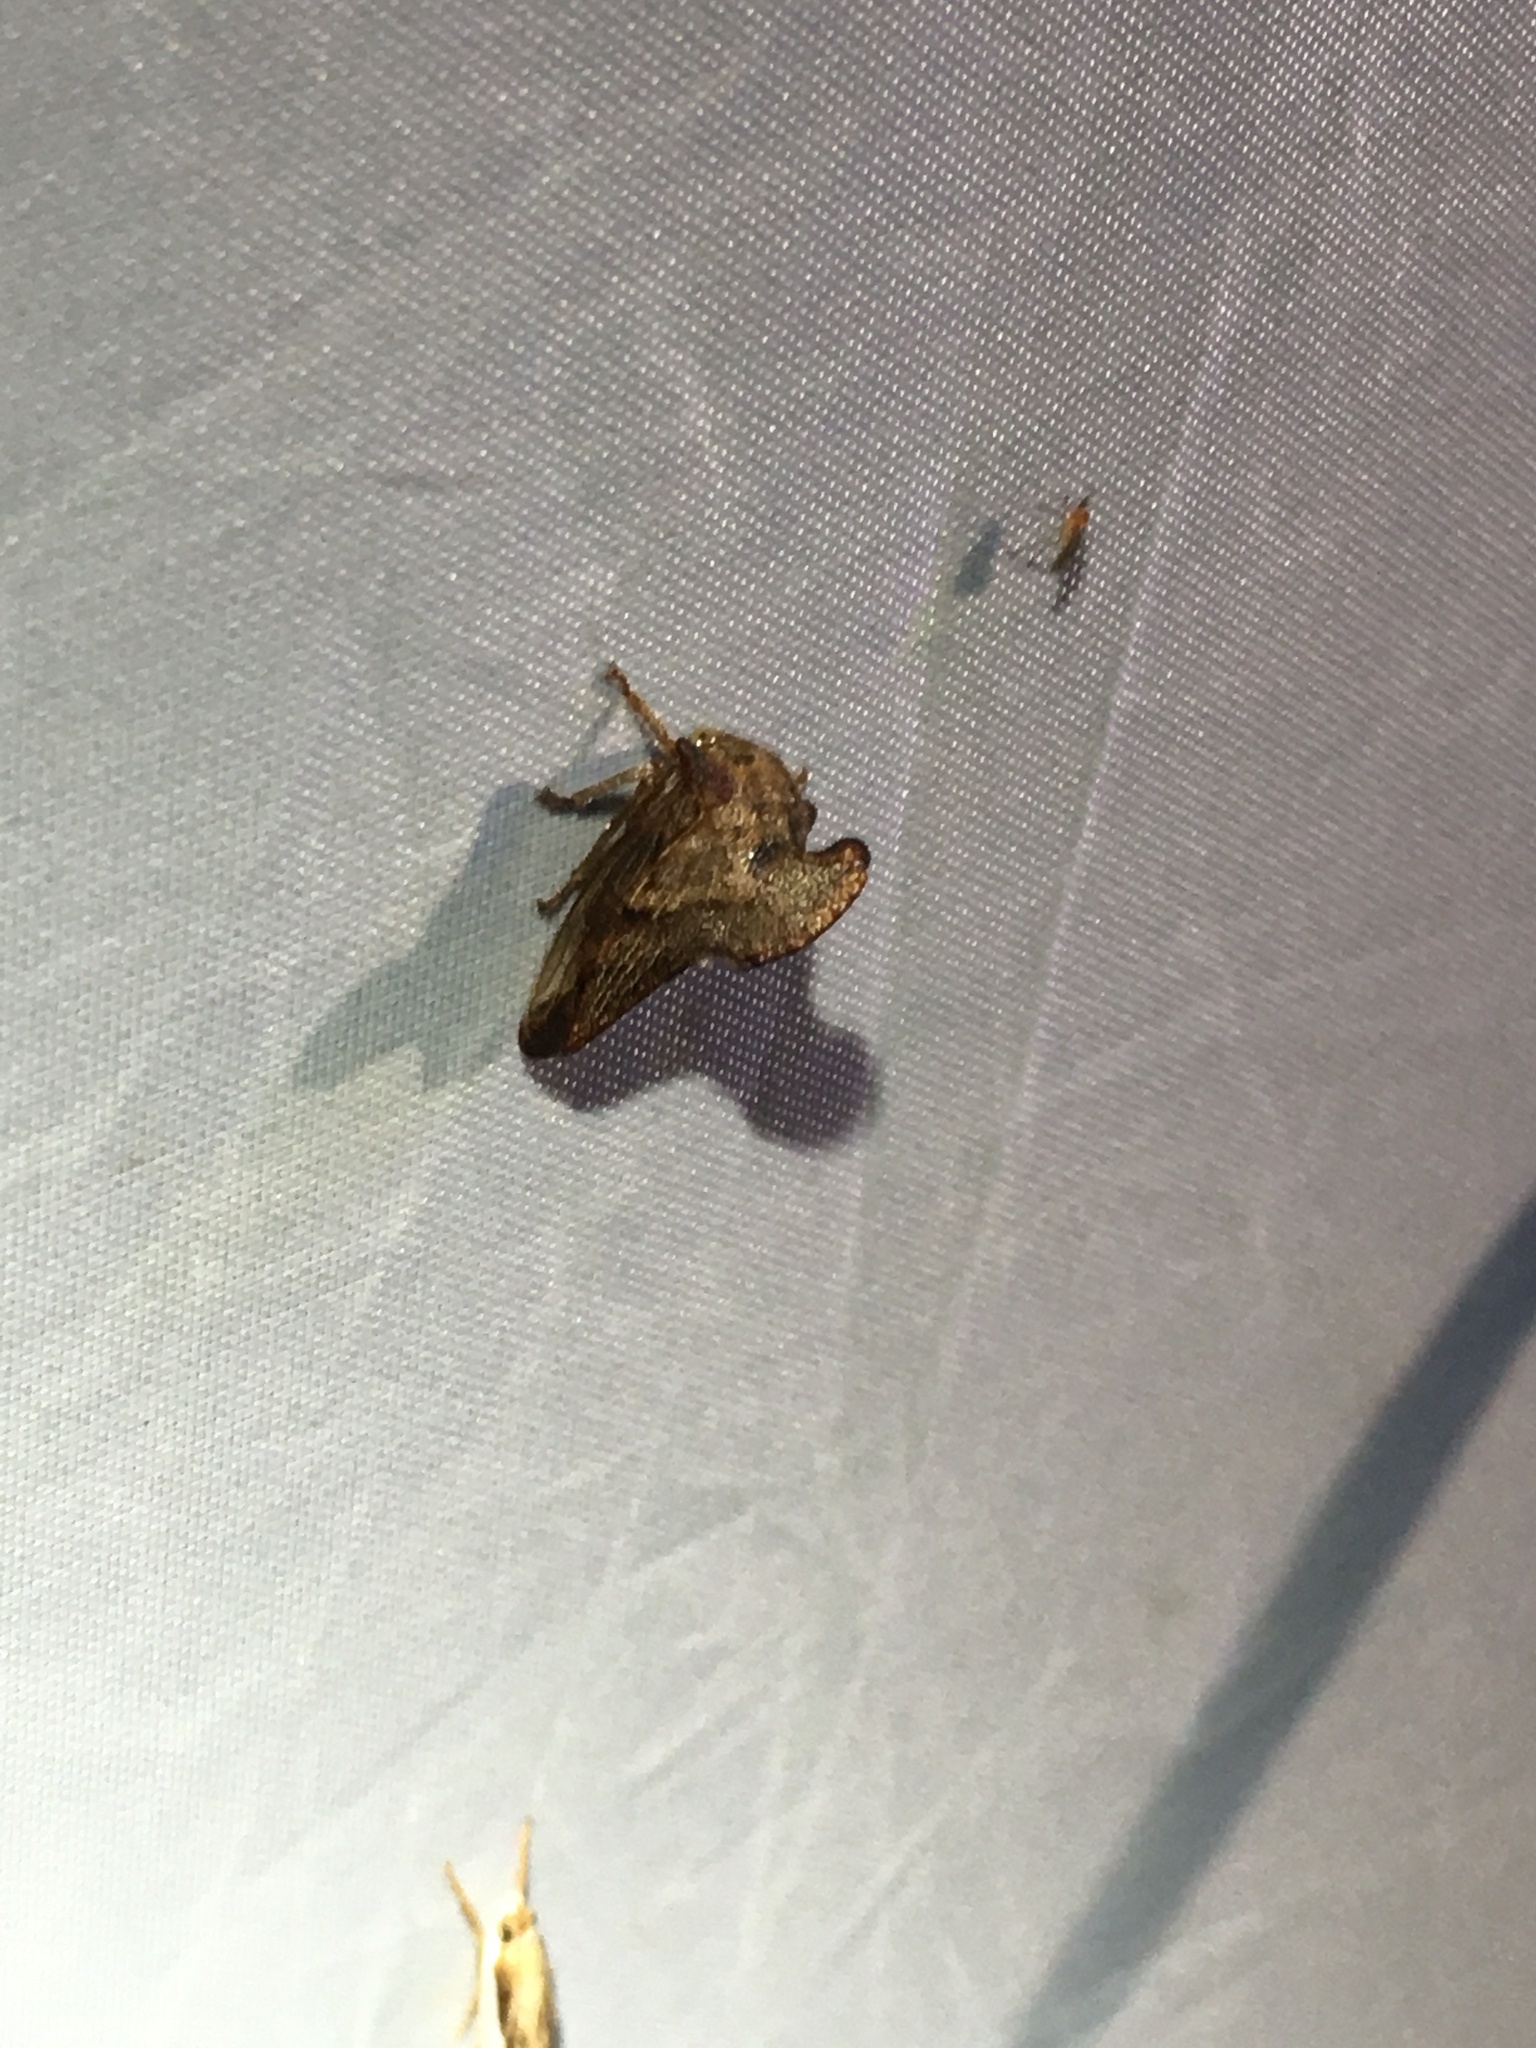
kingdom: Animalia
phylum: Arthropoda
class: Insecta
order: Hemiptera
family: Membracidae
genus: Telamona
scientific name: Telamona projecta
